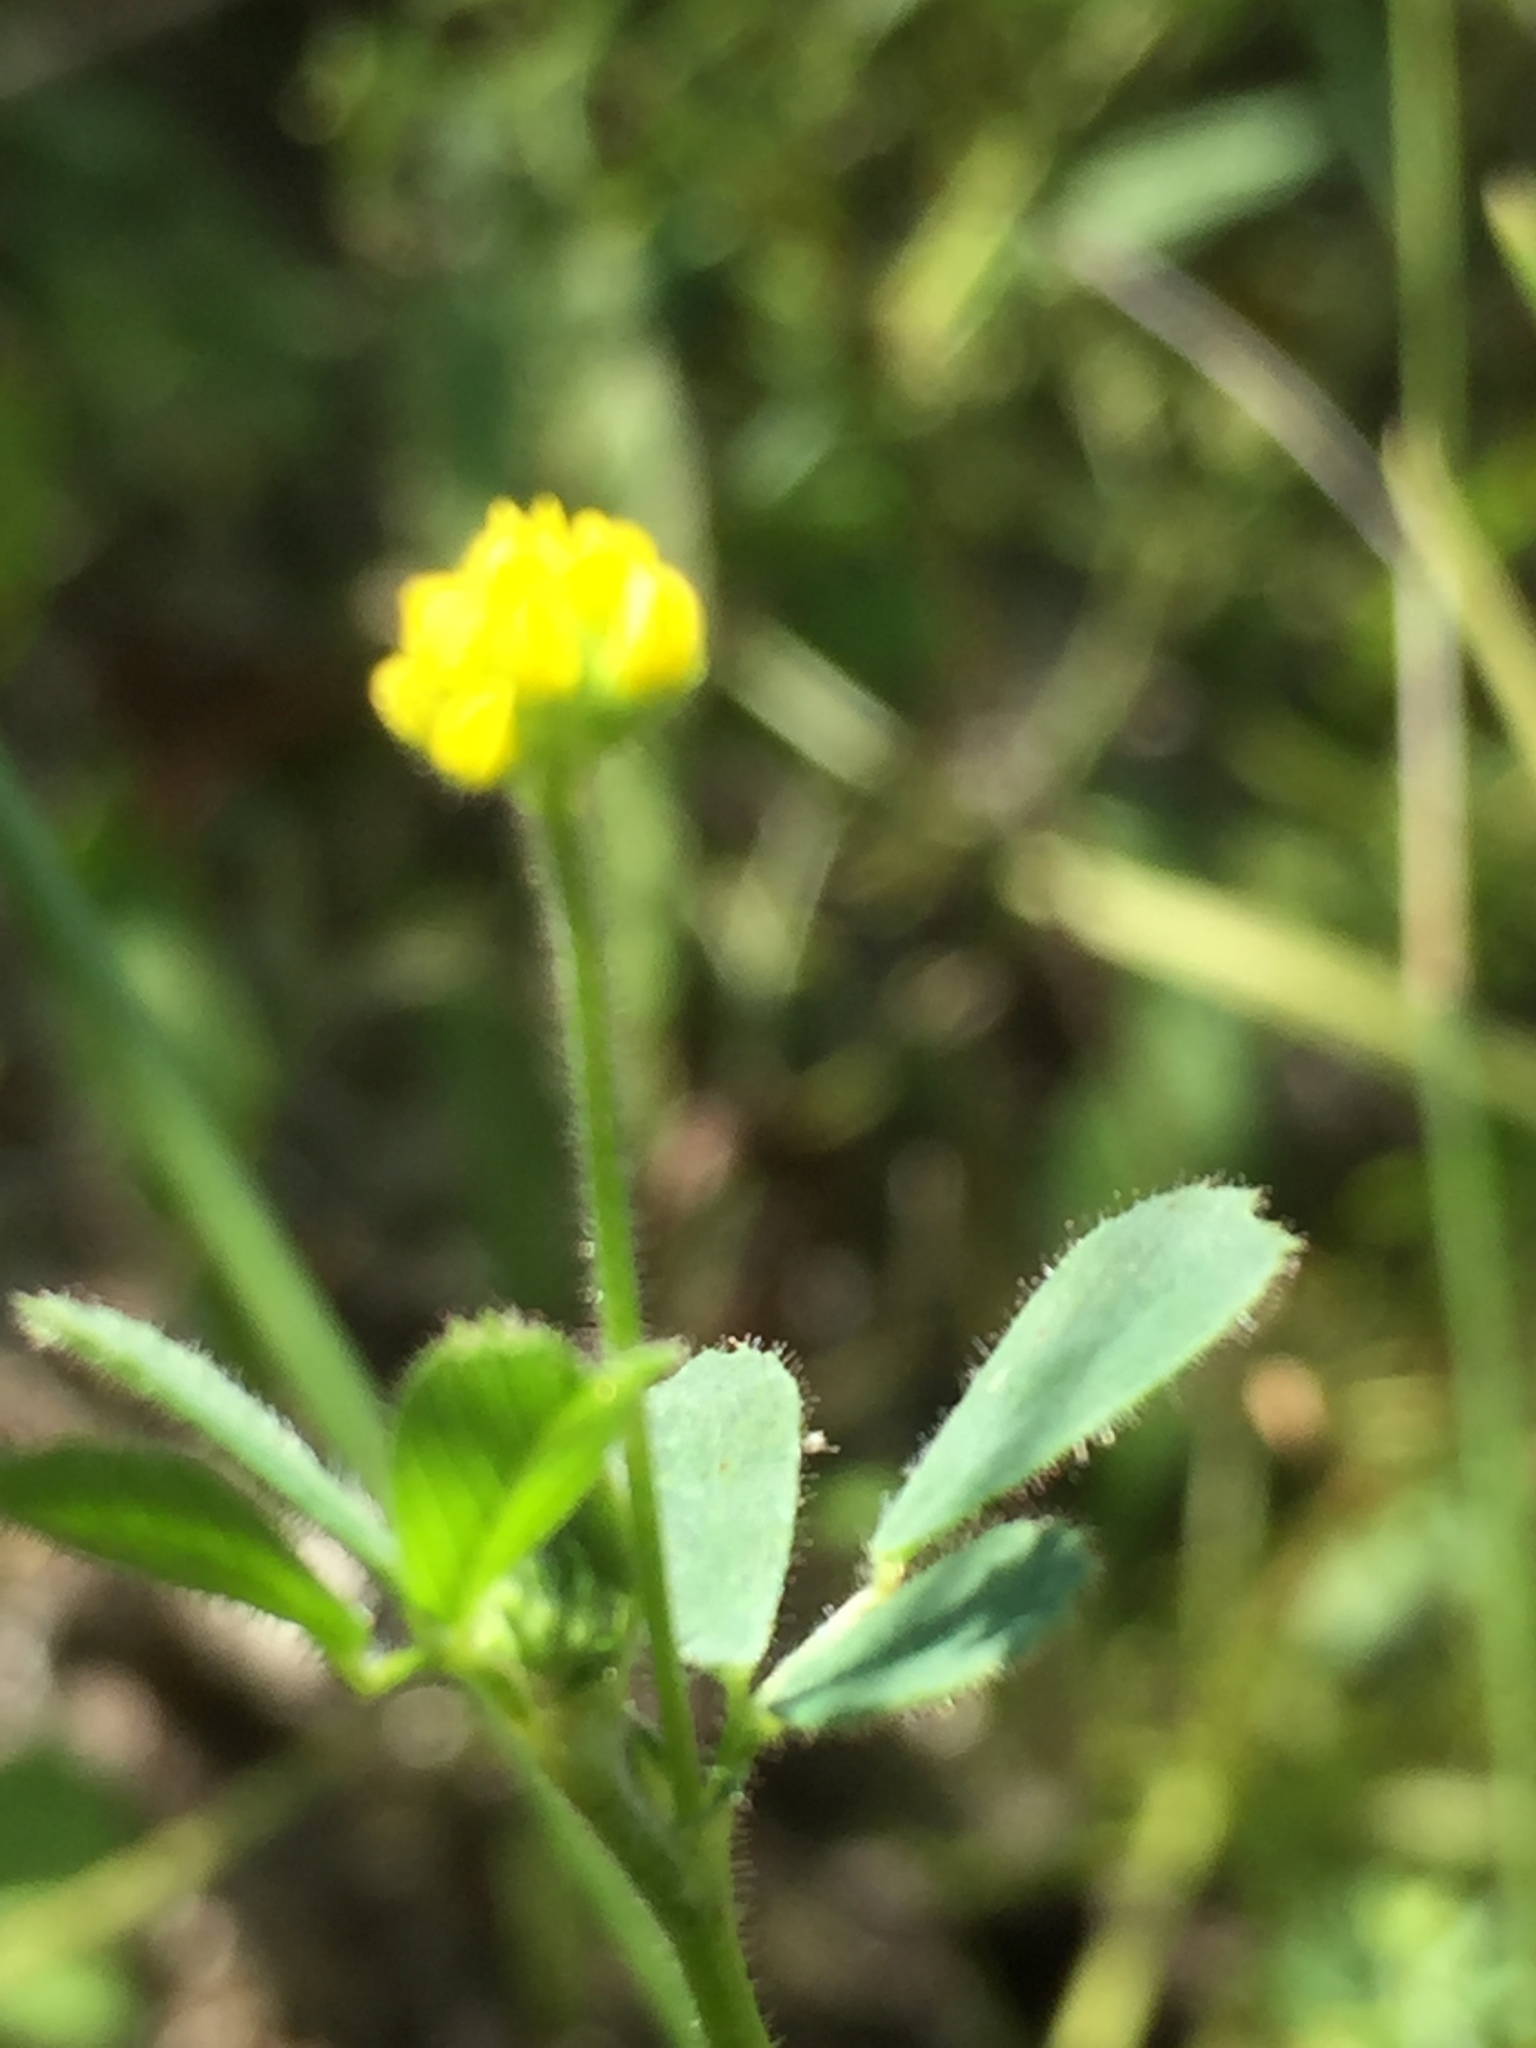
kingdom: Plantae
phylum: Tracheophyta
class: Magnoliopsida
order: Fabales
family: Fabaceae
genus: Medicago
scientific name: Medicago lupulina
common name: Black medick
